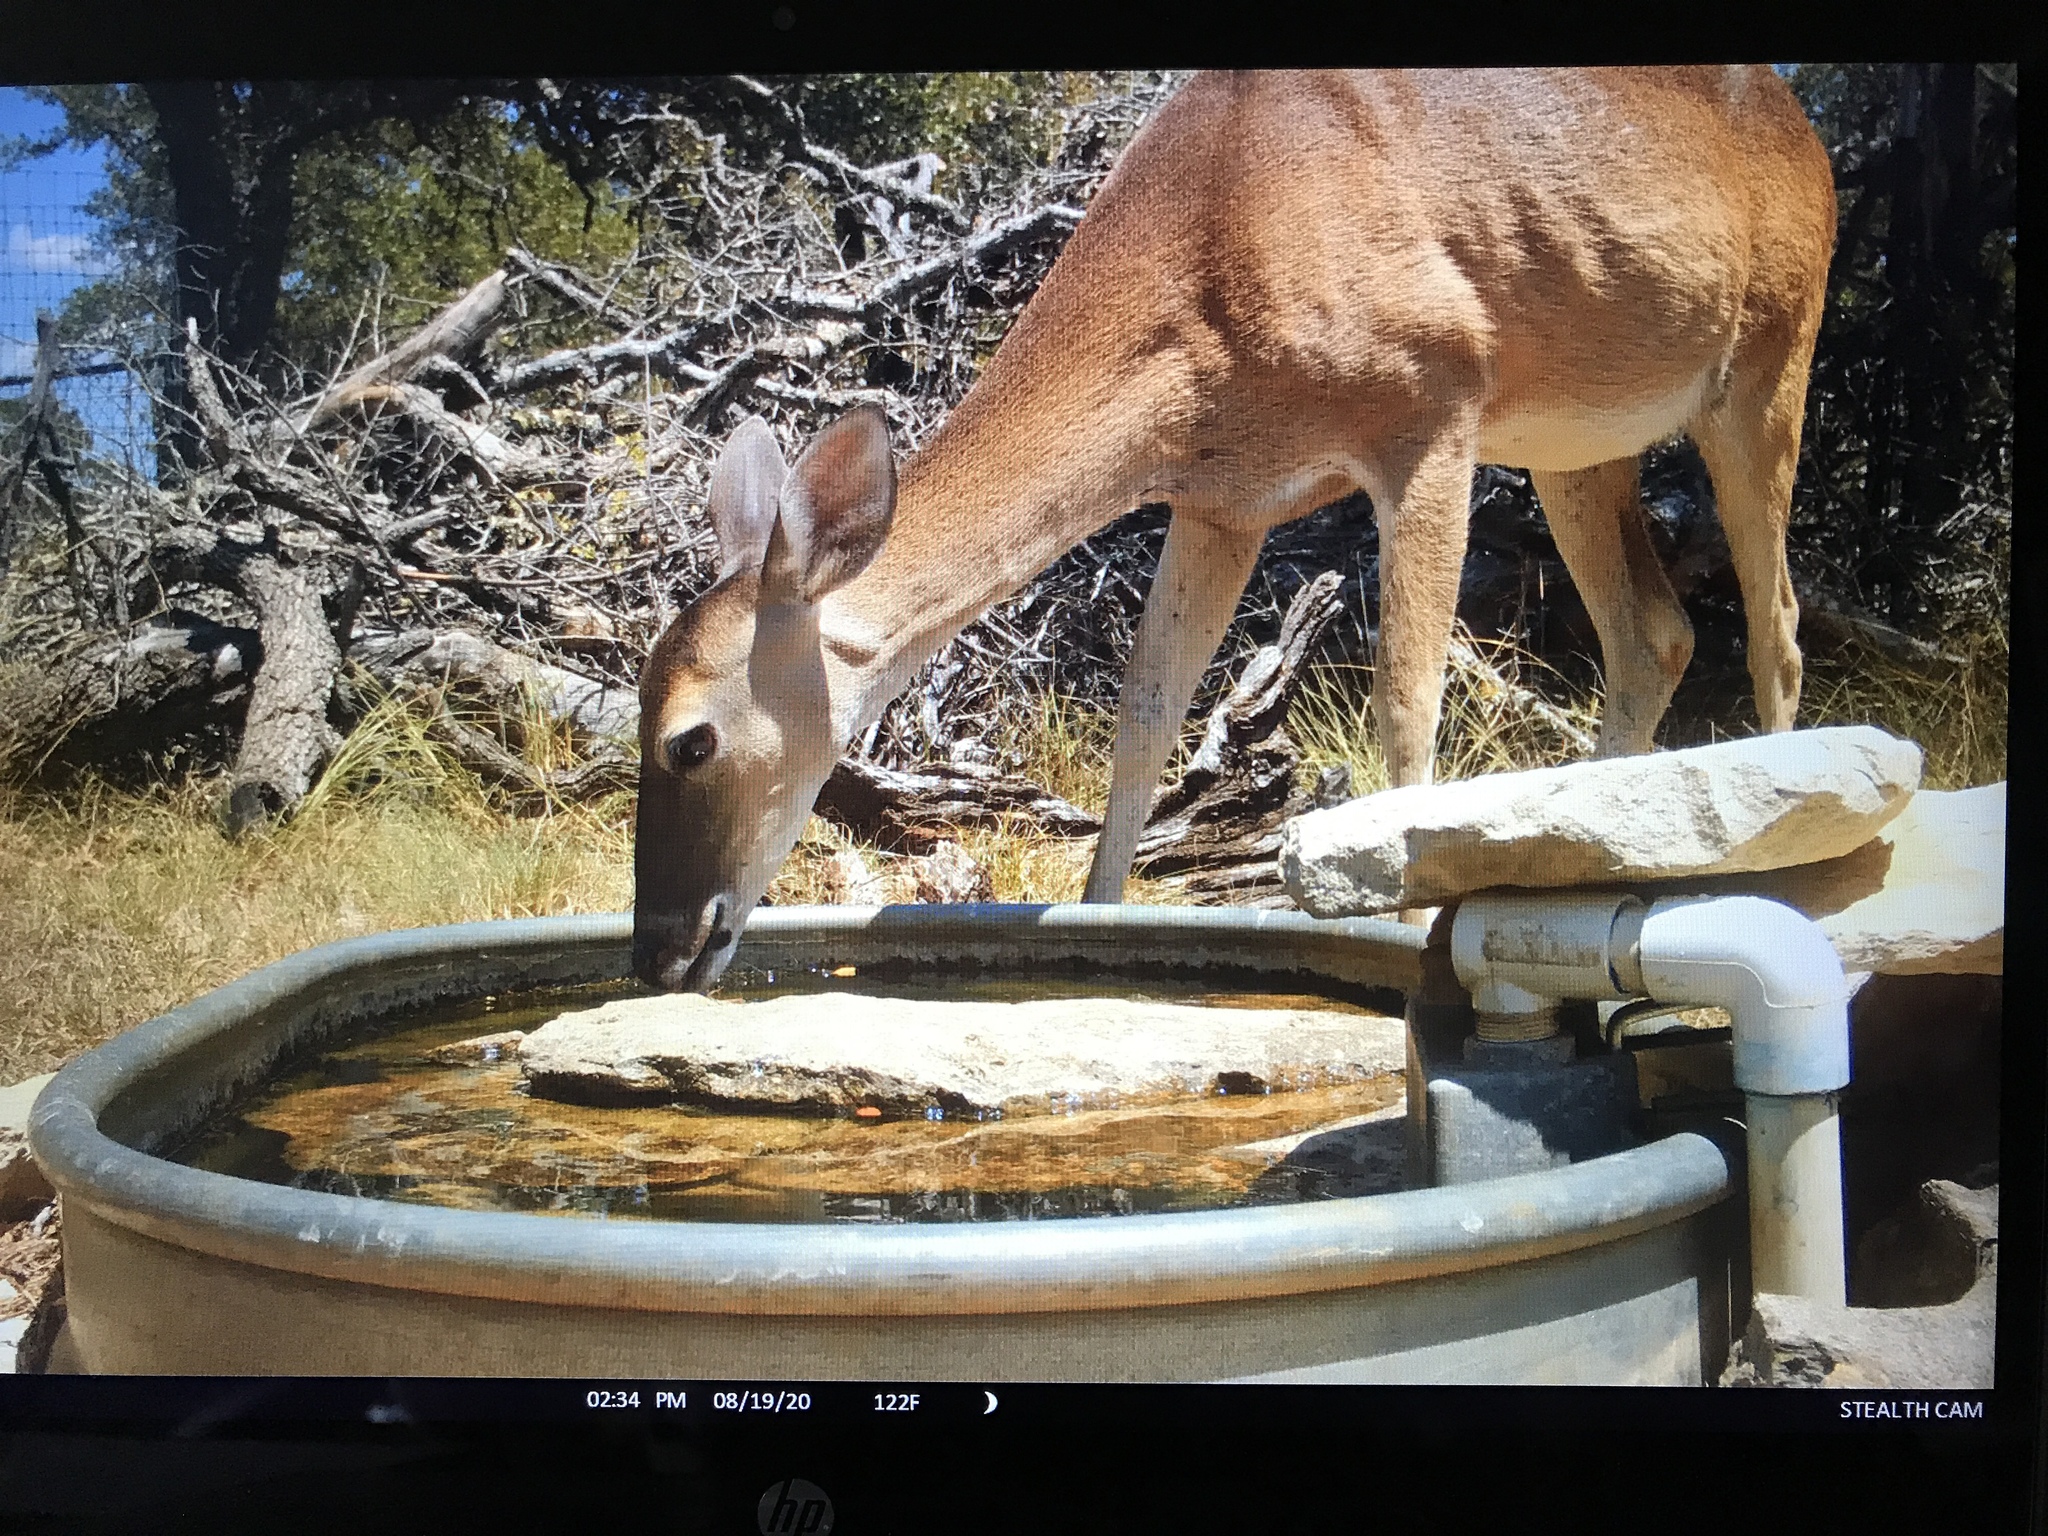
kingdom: Animalia
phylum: Chordata
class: Mammalia
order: Artiodactyla
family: Cervidae
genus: Odocoileus
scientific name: Odocoileus virginianus
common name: White-tailed deer
